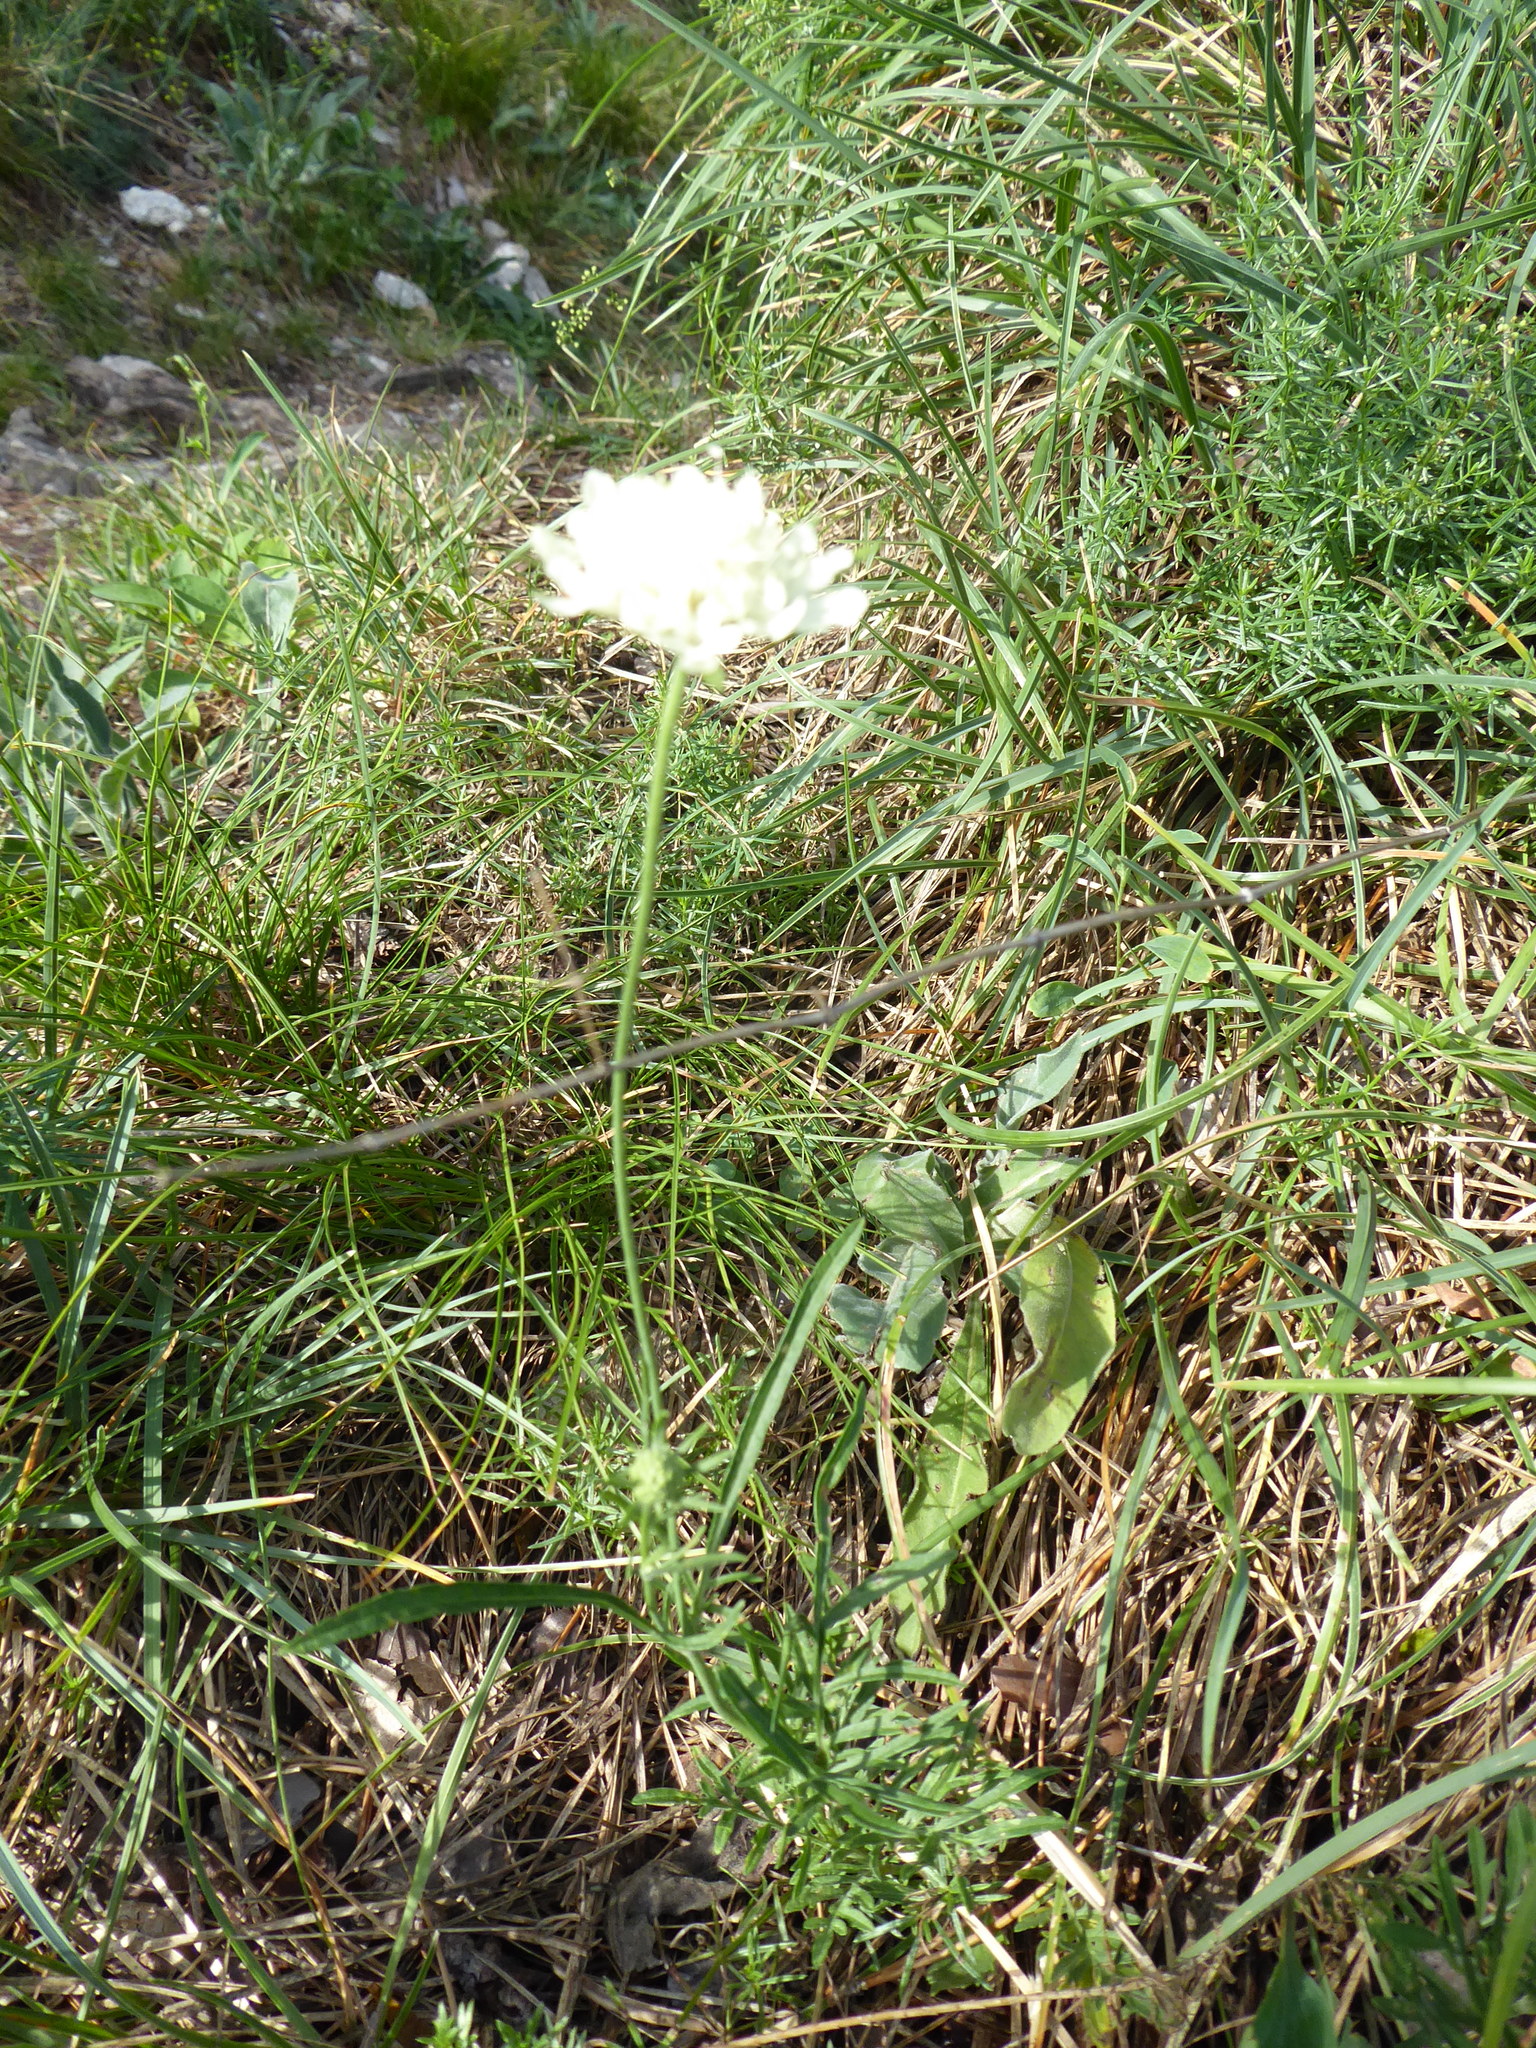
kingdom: Plantae
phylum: Tracheophyta
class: Magnoliopsida
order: Dipsacales
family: Caprifoliaceae
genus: Scabiosa
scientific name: Scabiosa ochroleuca
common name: Cream pincushions
